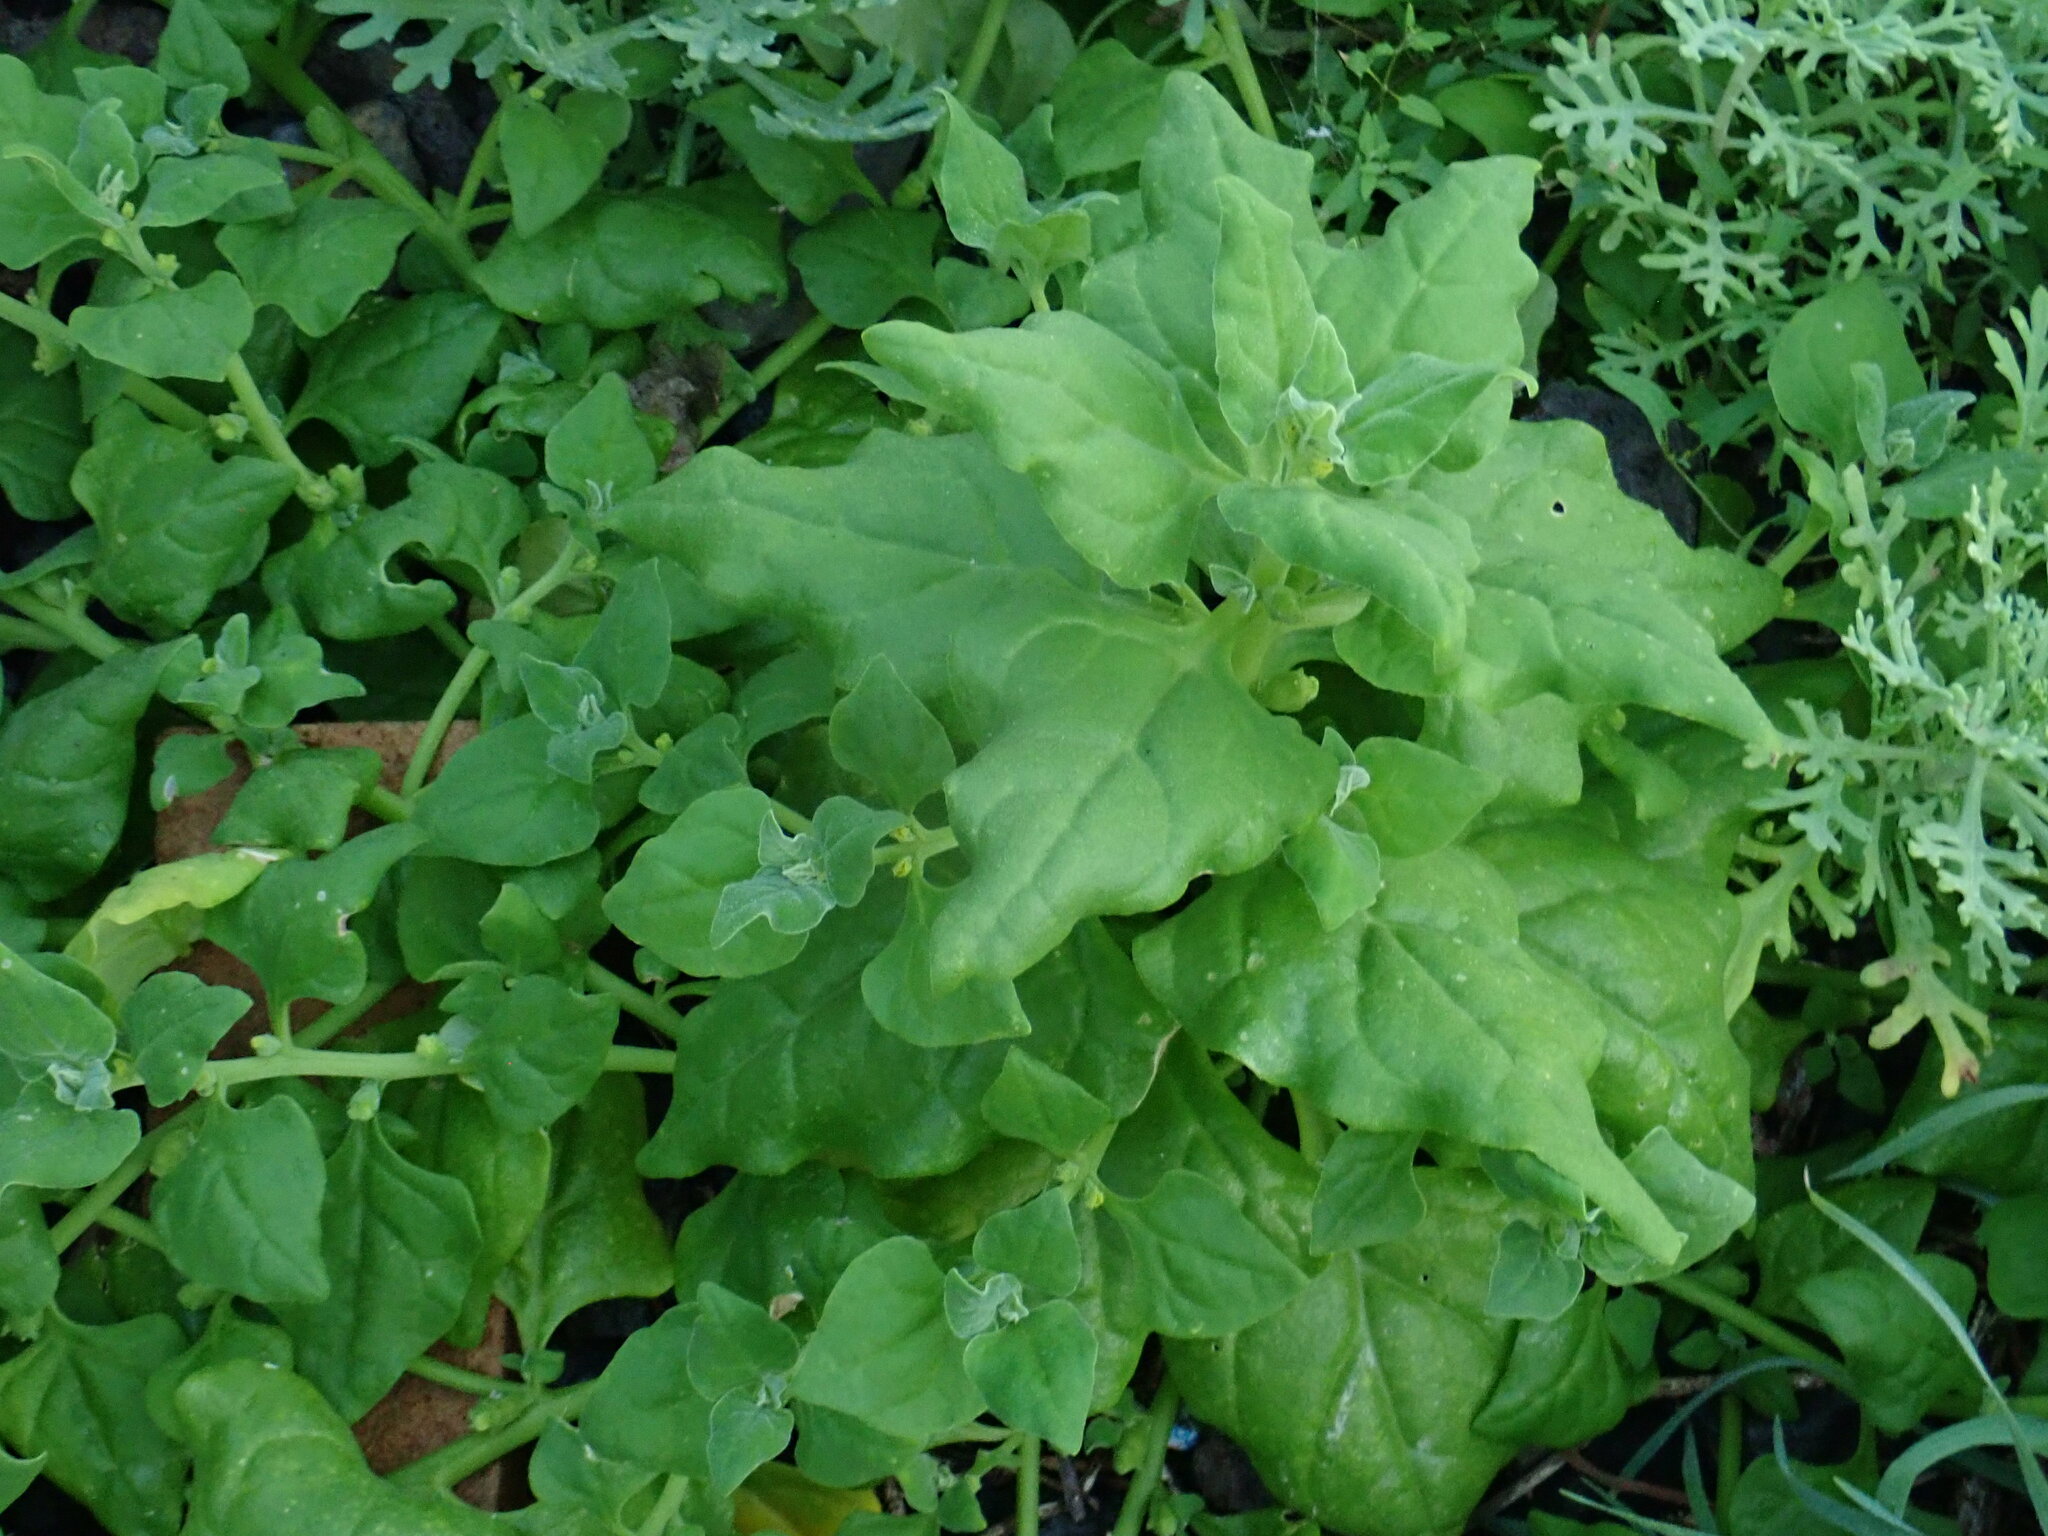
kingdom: Plantae
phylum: Tracheophyta
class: Magnoliopsida
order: Caryophyllales
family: Aizoaceae
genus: Tetragonia
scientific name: Tetragonia tetragonoides
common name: New zealand-spinach
